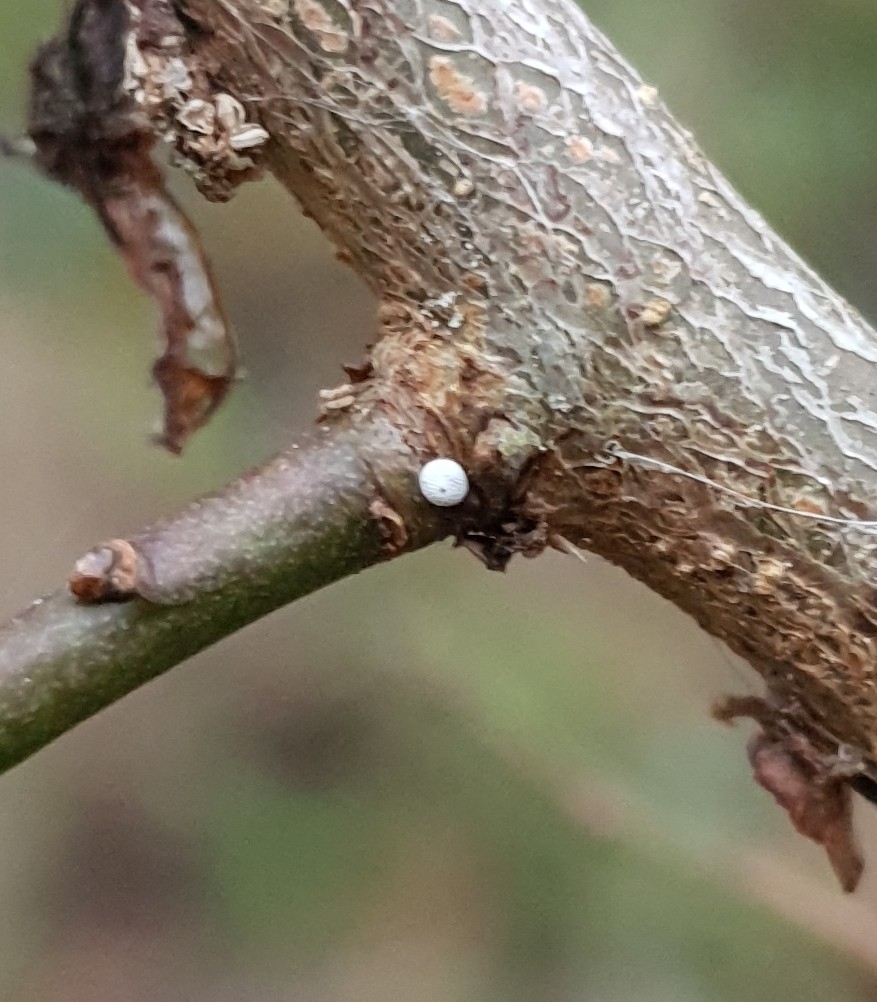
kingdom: Animalia
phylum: Arthropoda
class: Insecta
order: Lepidoptera
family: Lycaenidae
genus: Thecla
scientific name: Thecla betulae
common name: Brown hairstreak
